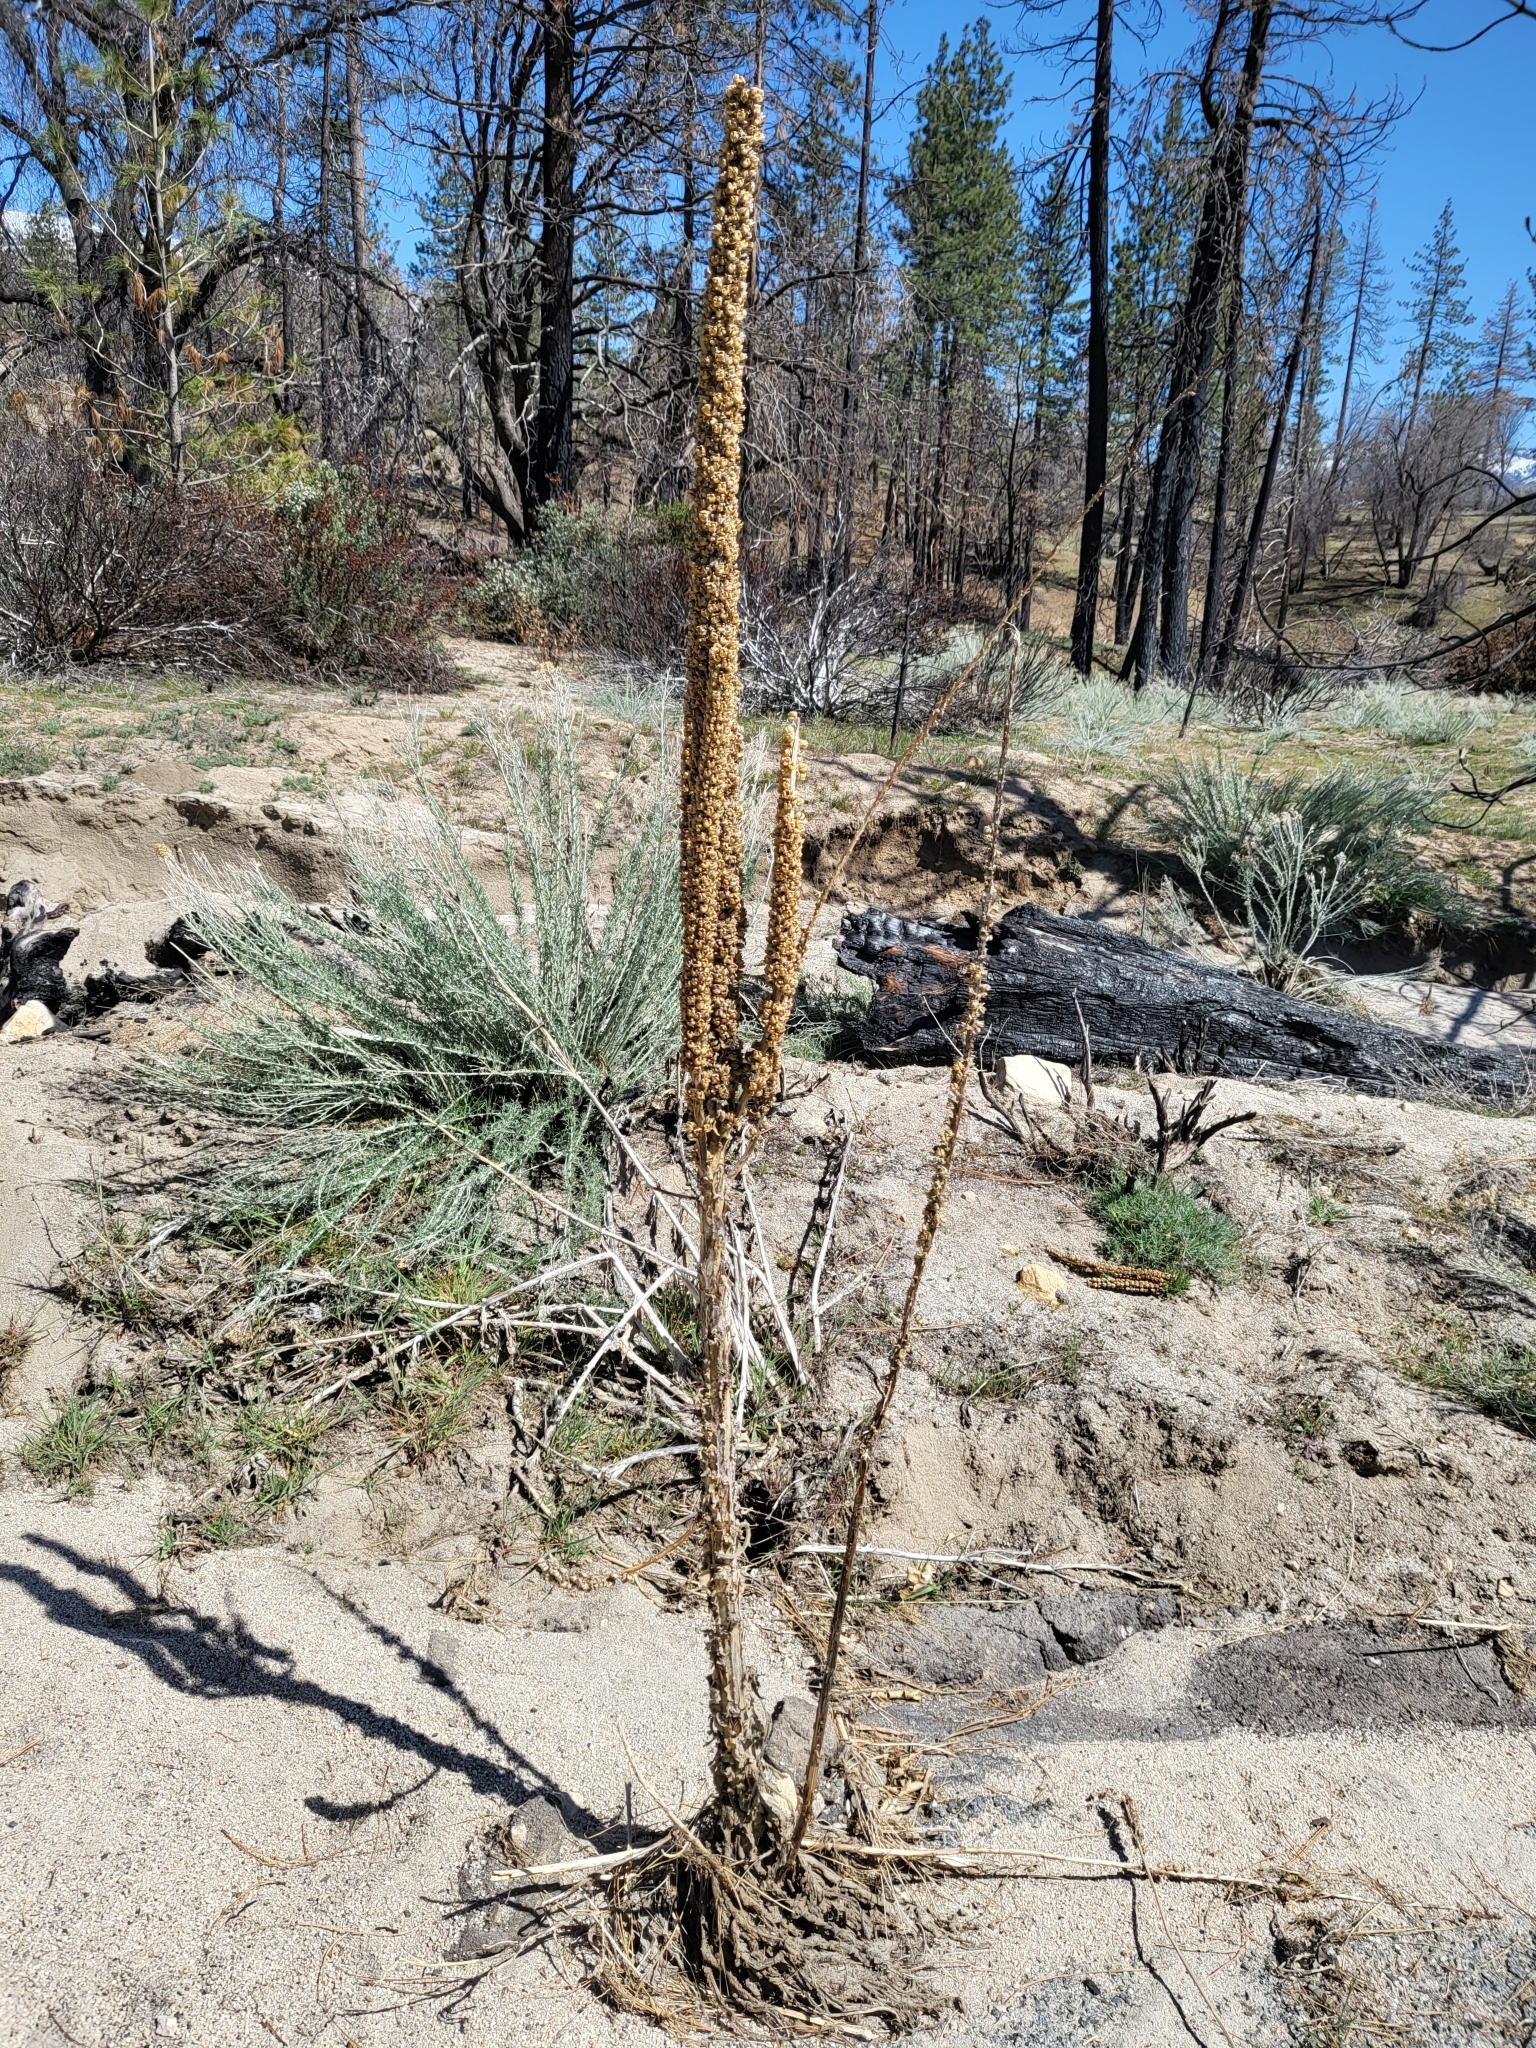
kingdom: Plantae
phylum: Tracheophyta
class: Magnoliopsida
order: Lamiales
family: Scrophulariaceae
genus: Verbascum
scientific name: Verbascum thapsus
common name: Common mullein
